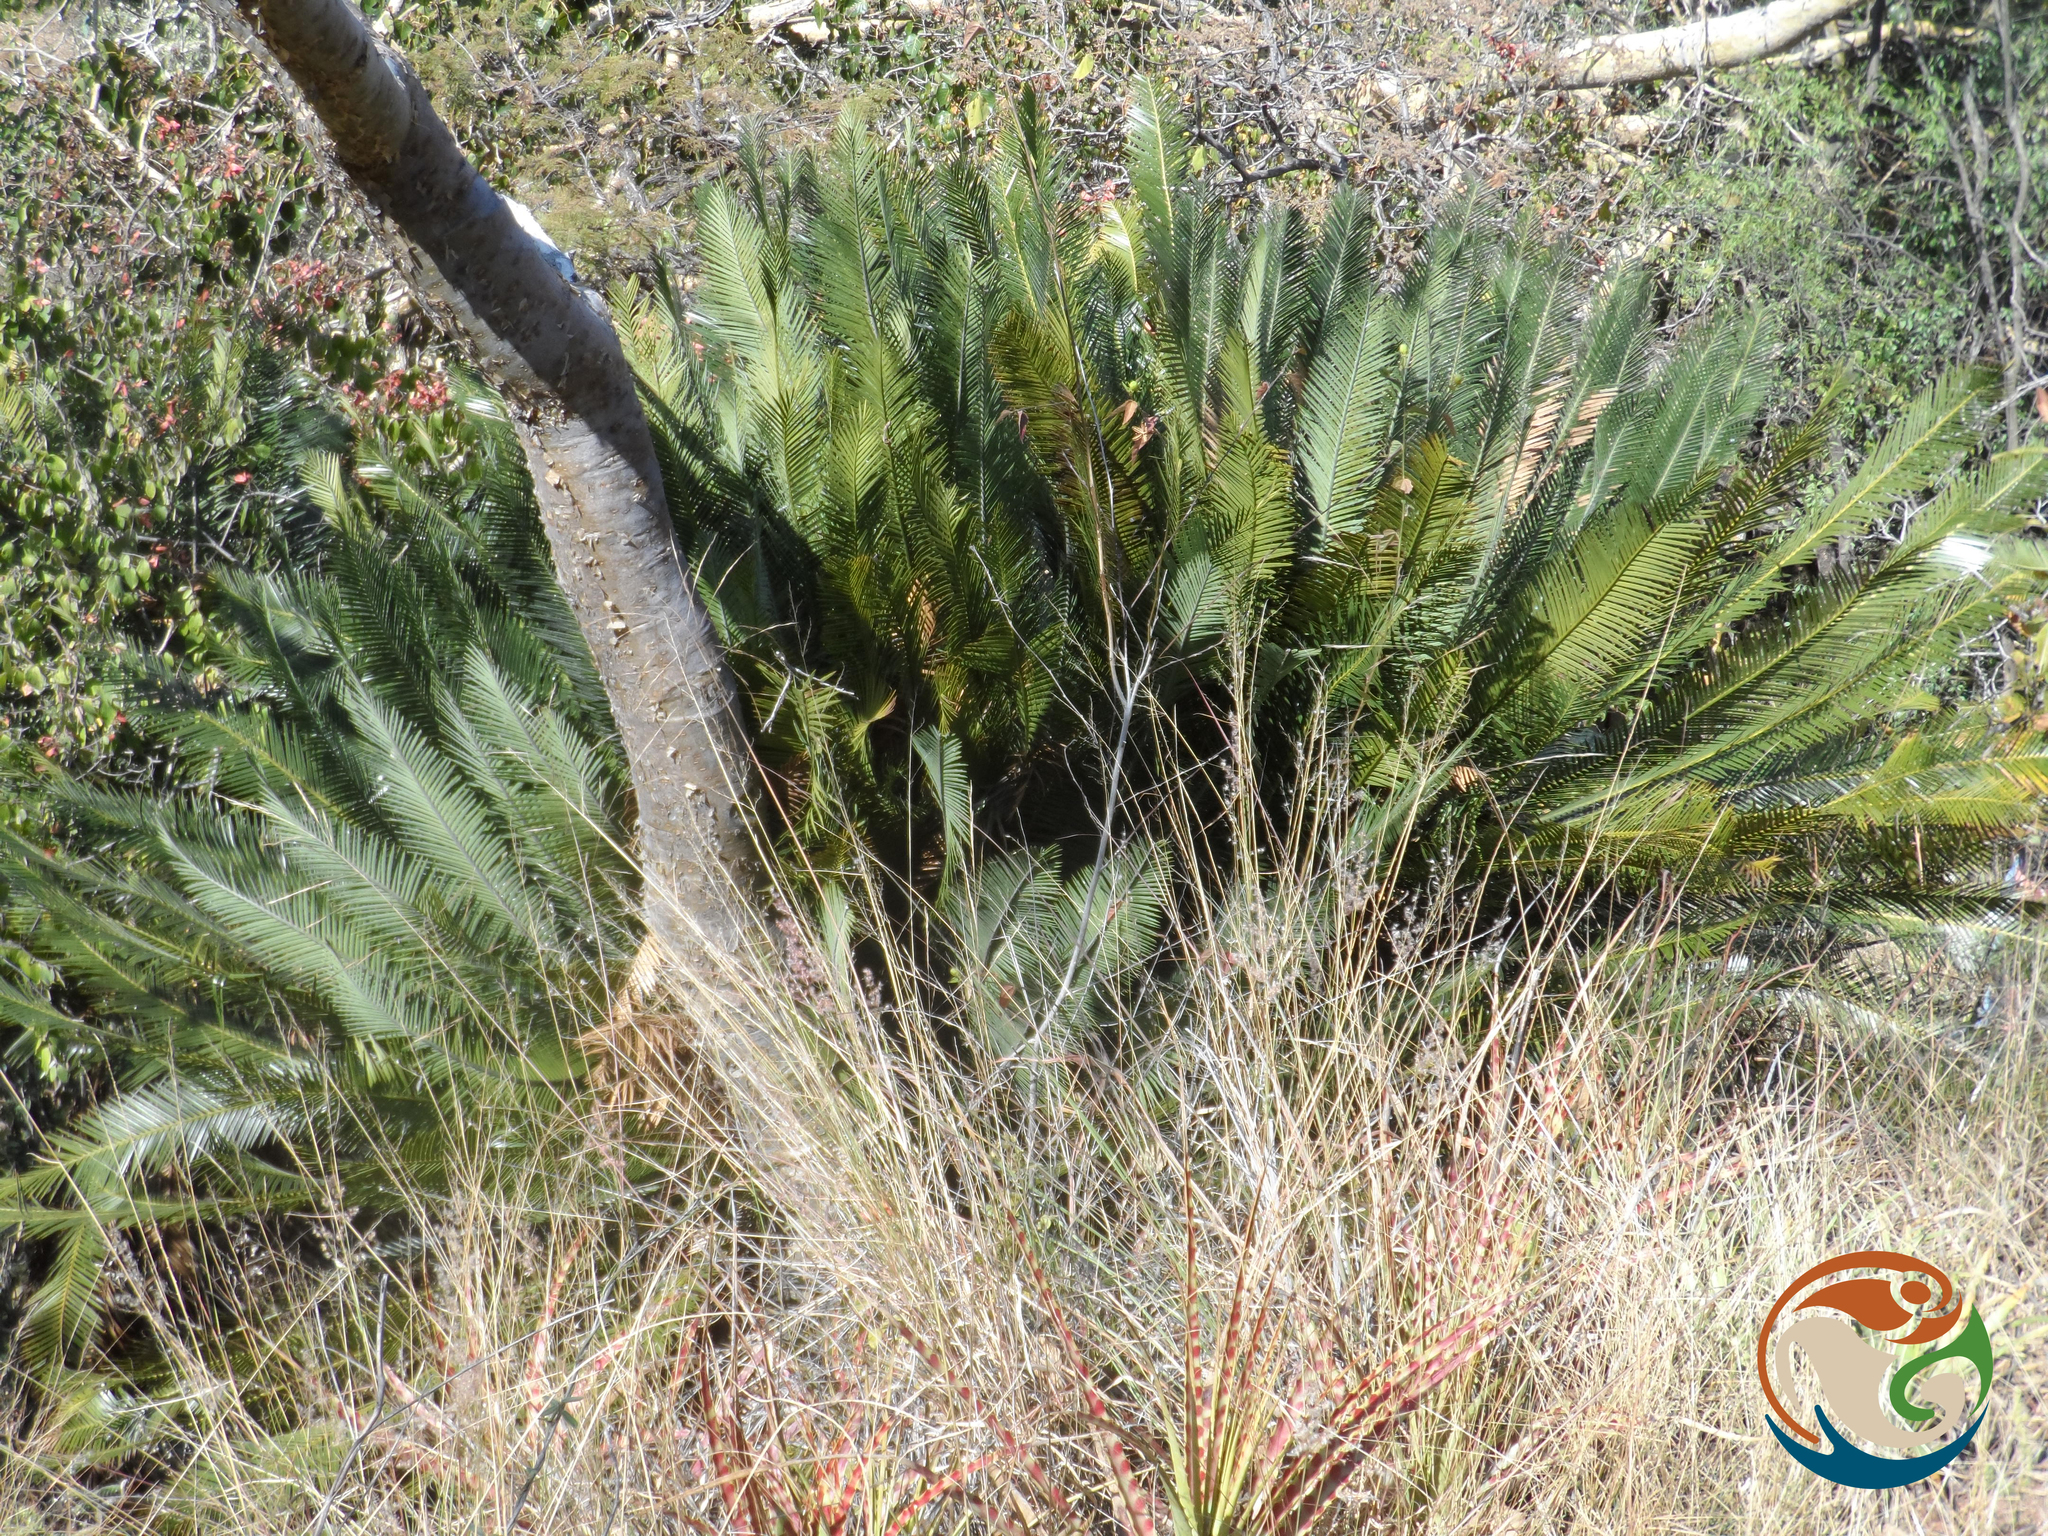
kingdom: Plantae
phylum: Tracheophyta
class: Cycadopsida
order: Cycadales
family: Zamiaceae
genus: Dioon
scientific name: Dioon planifolium
